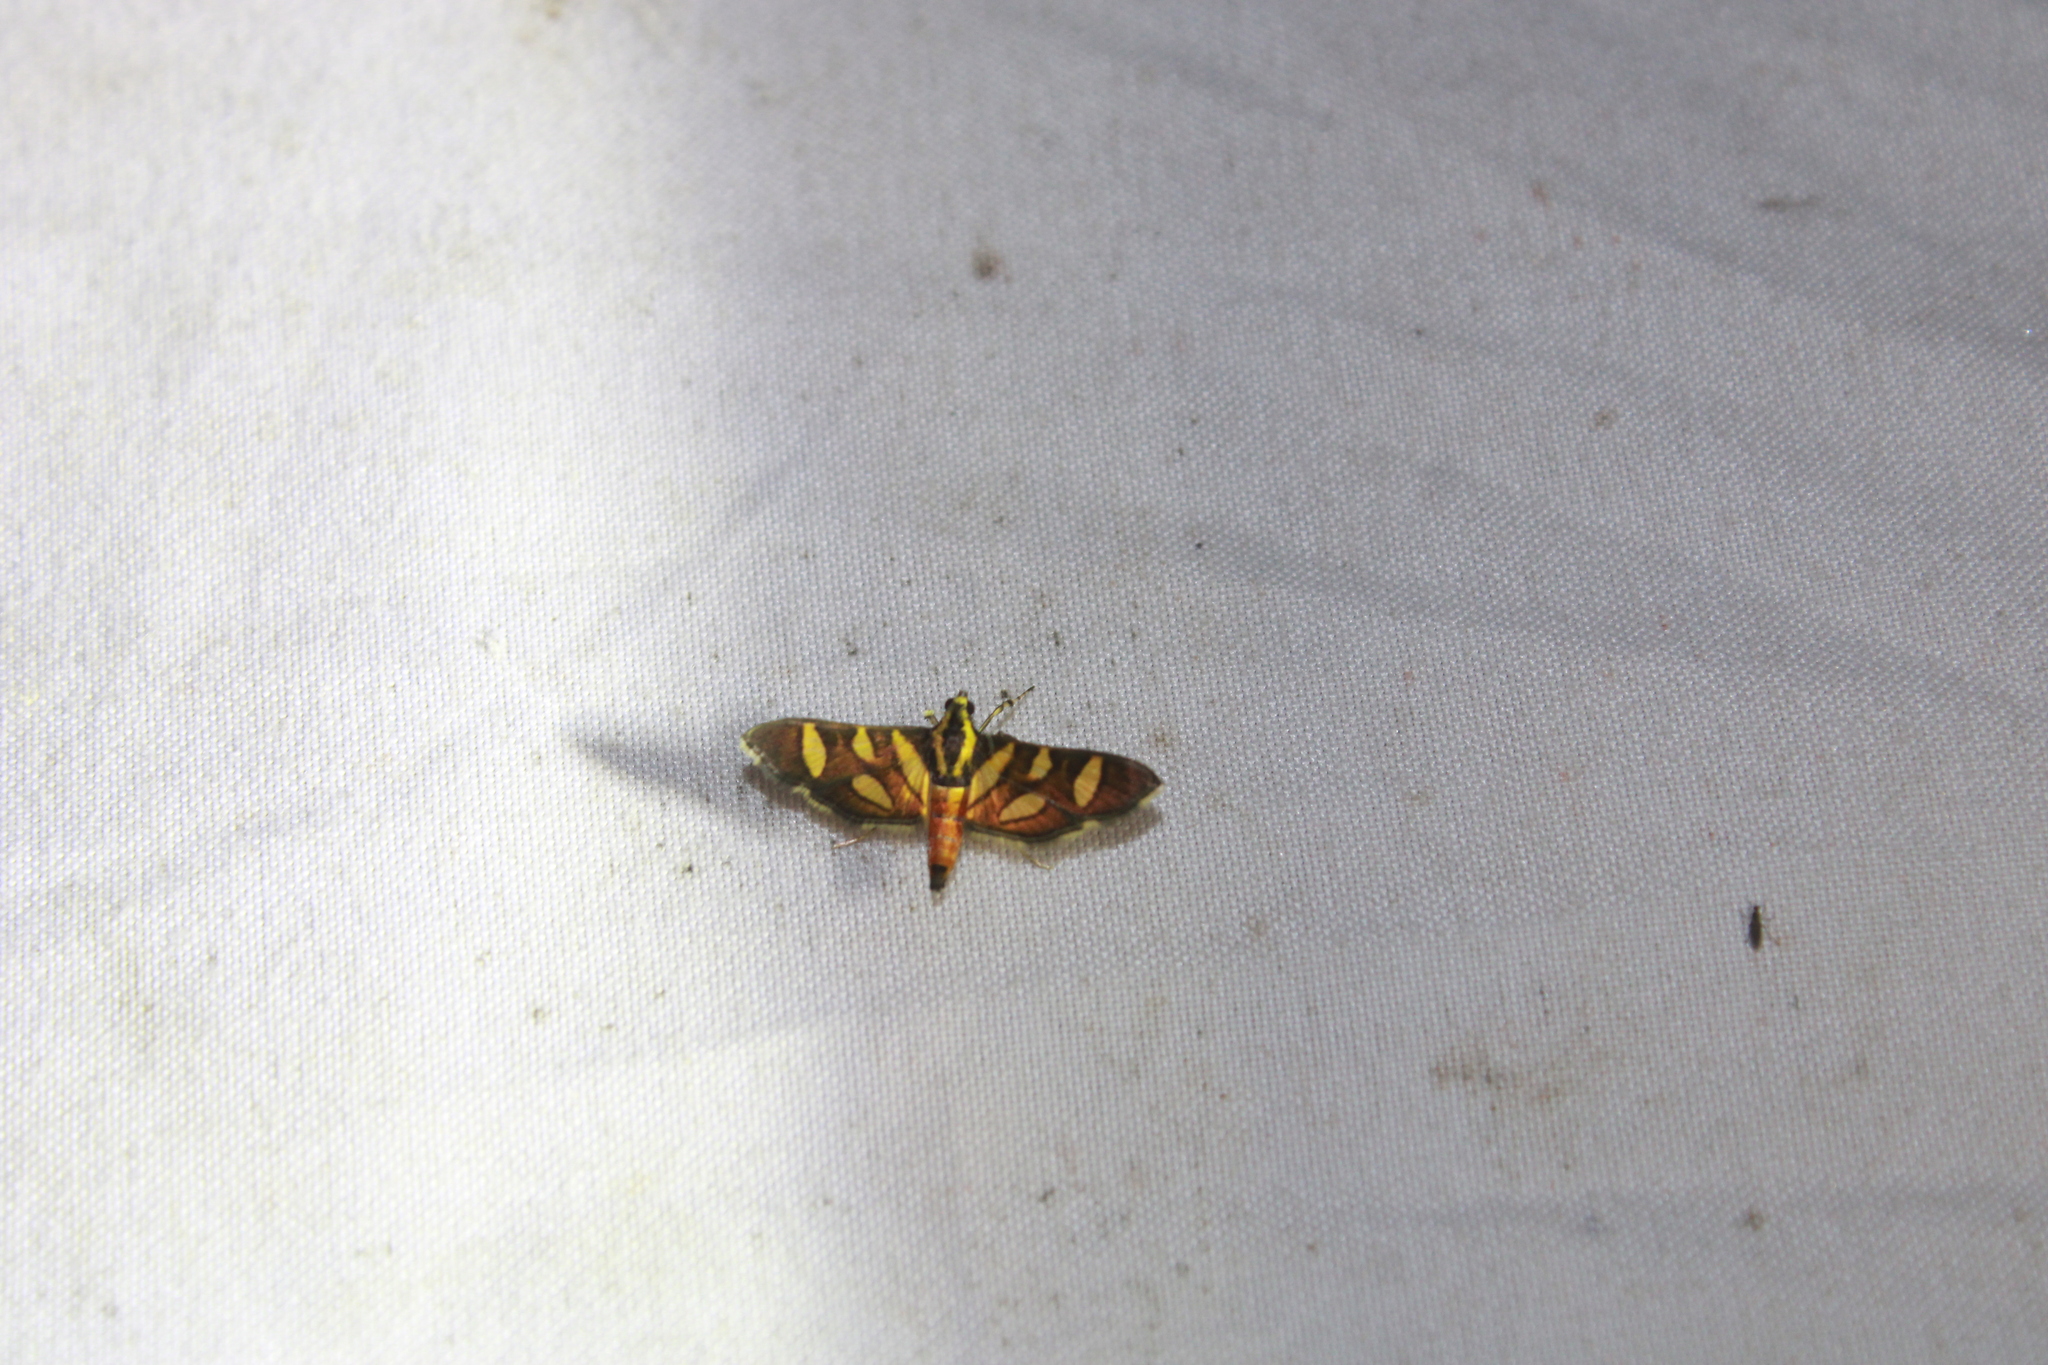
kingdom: Animalia
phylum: Arthropoda
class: Insecta
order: Lepidoptera
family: Crambidae
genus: Syngamia
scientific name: Syngamia florella
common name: Orange-spotted flower moth
